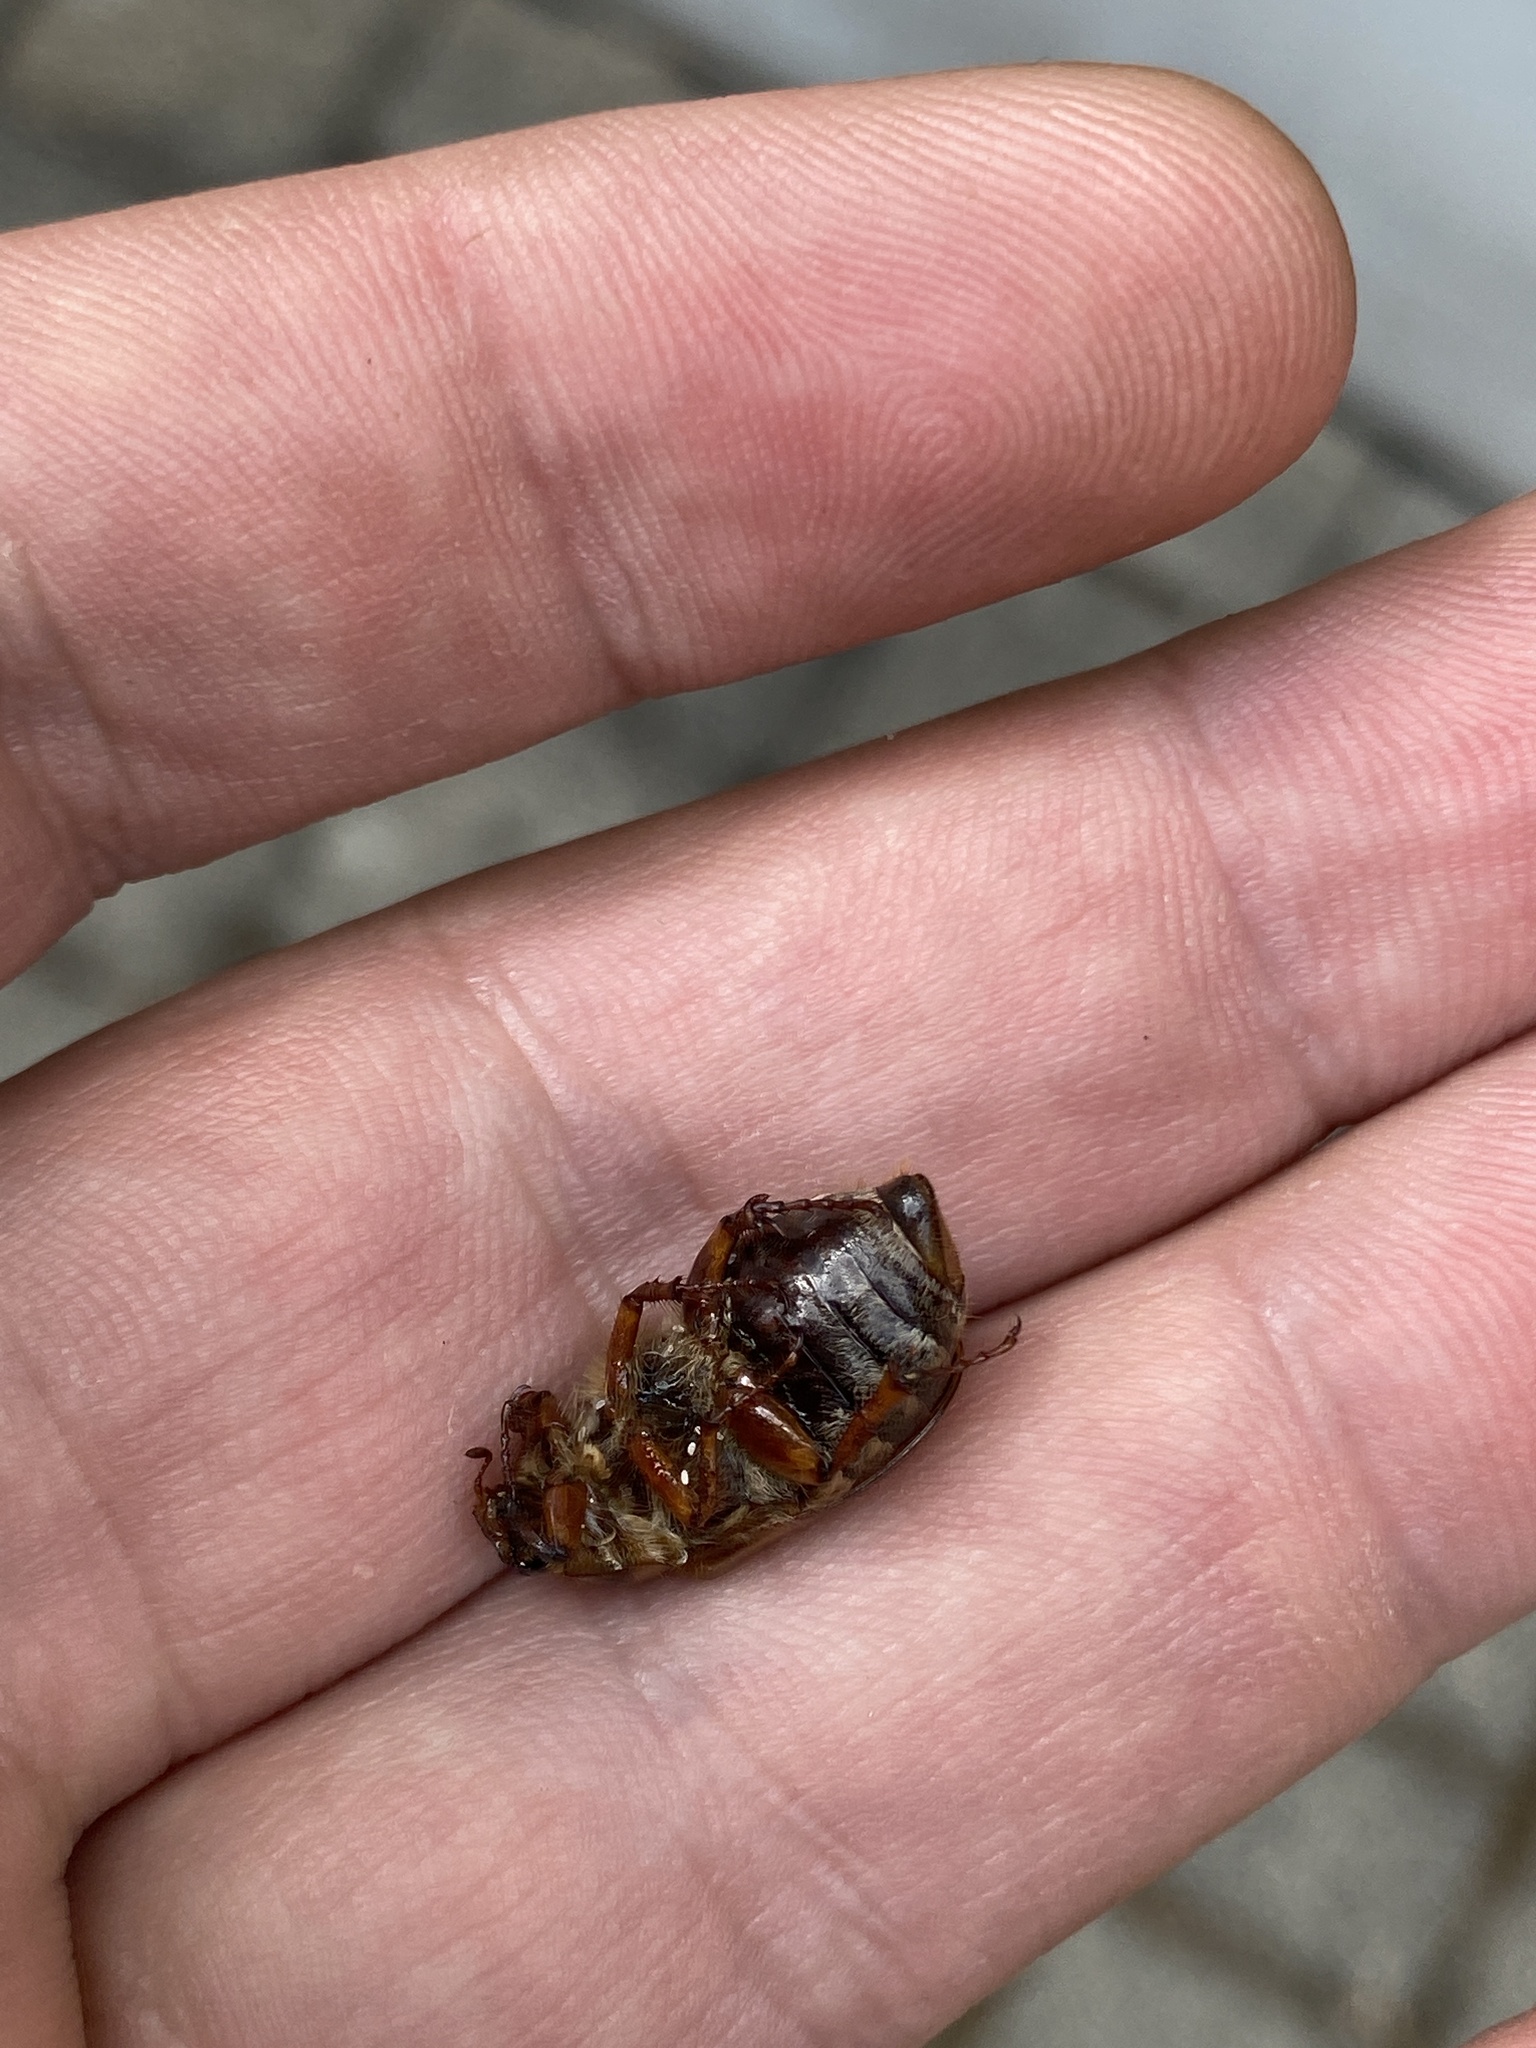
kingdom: Animalia
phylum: Arthropoda
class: Insecta
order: Coleoptera
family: Scarabaeidae
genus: Amphimallon
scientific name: Amphimallon solstitiale
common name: Summer chafer
